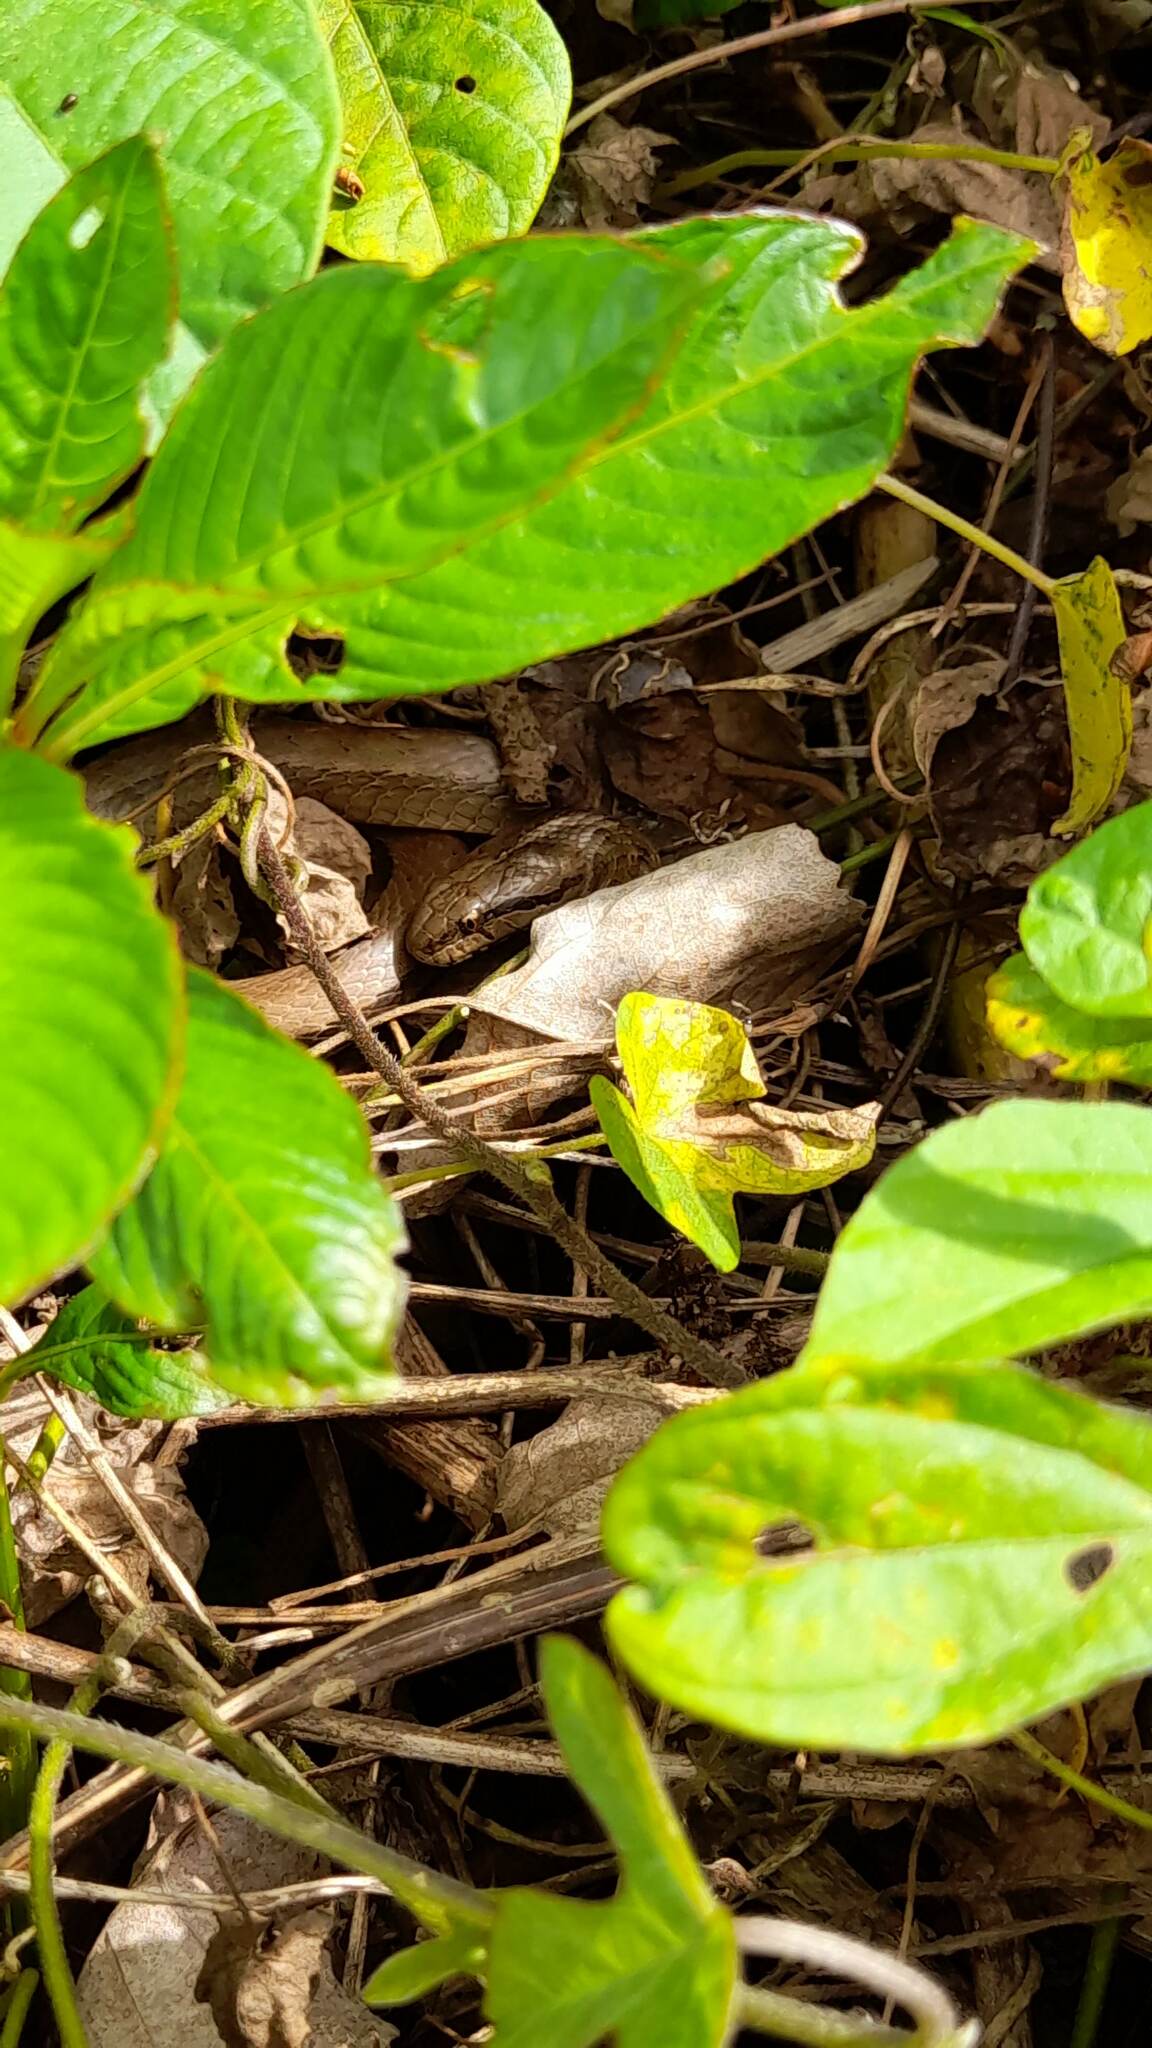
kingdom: Animalia
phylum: Chordata
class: Squamata
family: Colubridae
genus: Mesotes
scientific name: Mesotes
